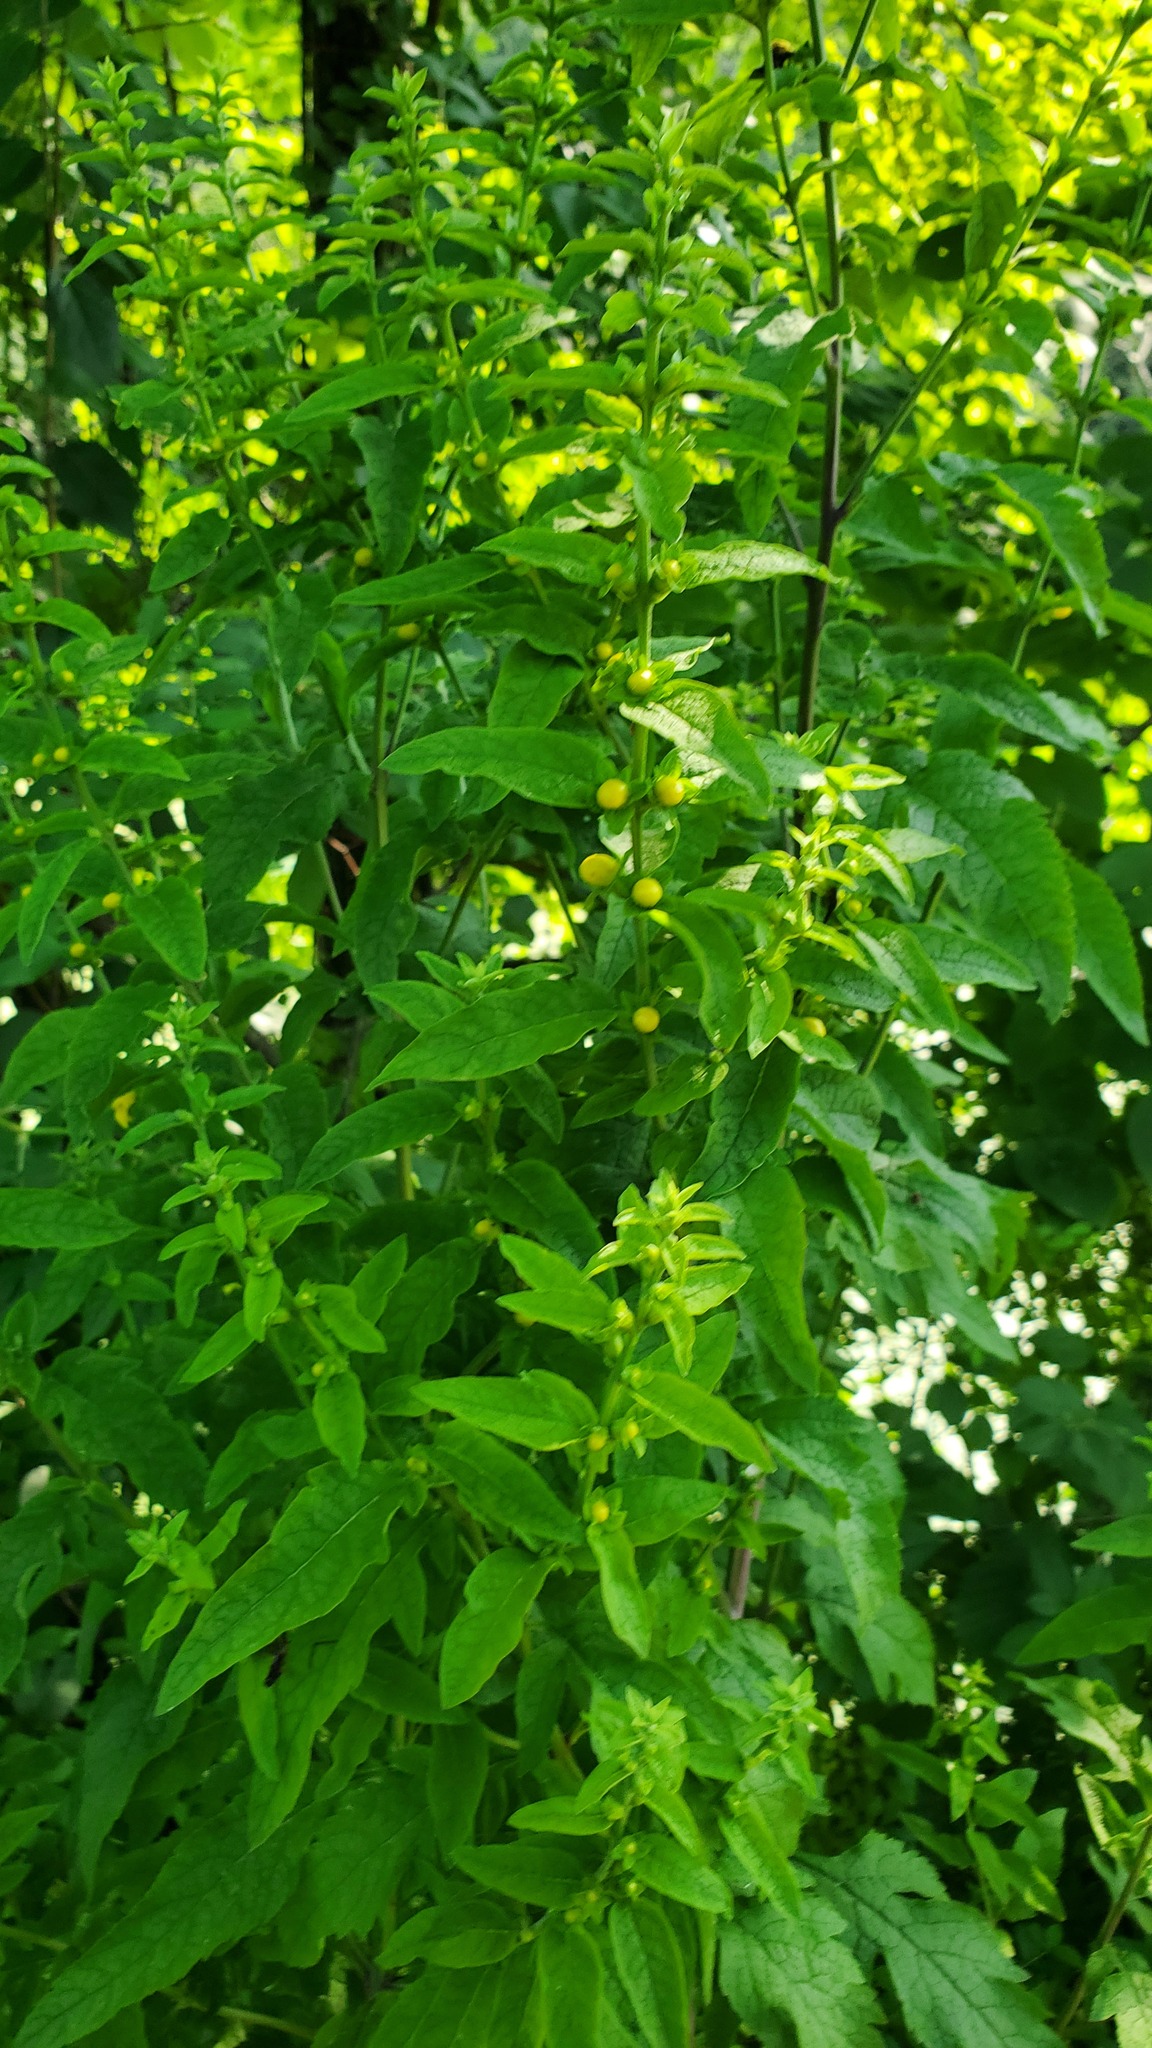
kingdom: Plantae
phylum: Tracheophyta
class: Magnoliopsida
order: Lamiales
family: Orobanchaceae
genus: Dasistoma
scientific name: Dasistoma macrophyllum
